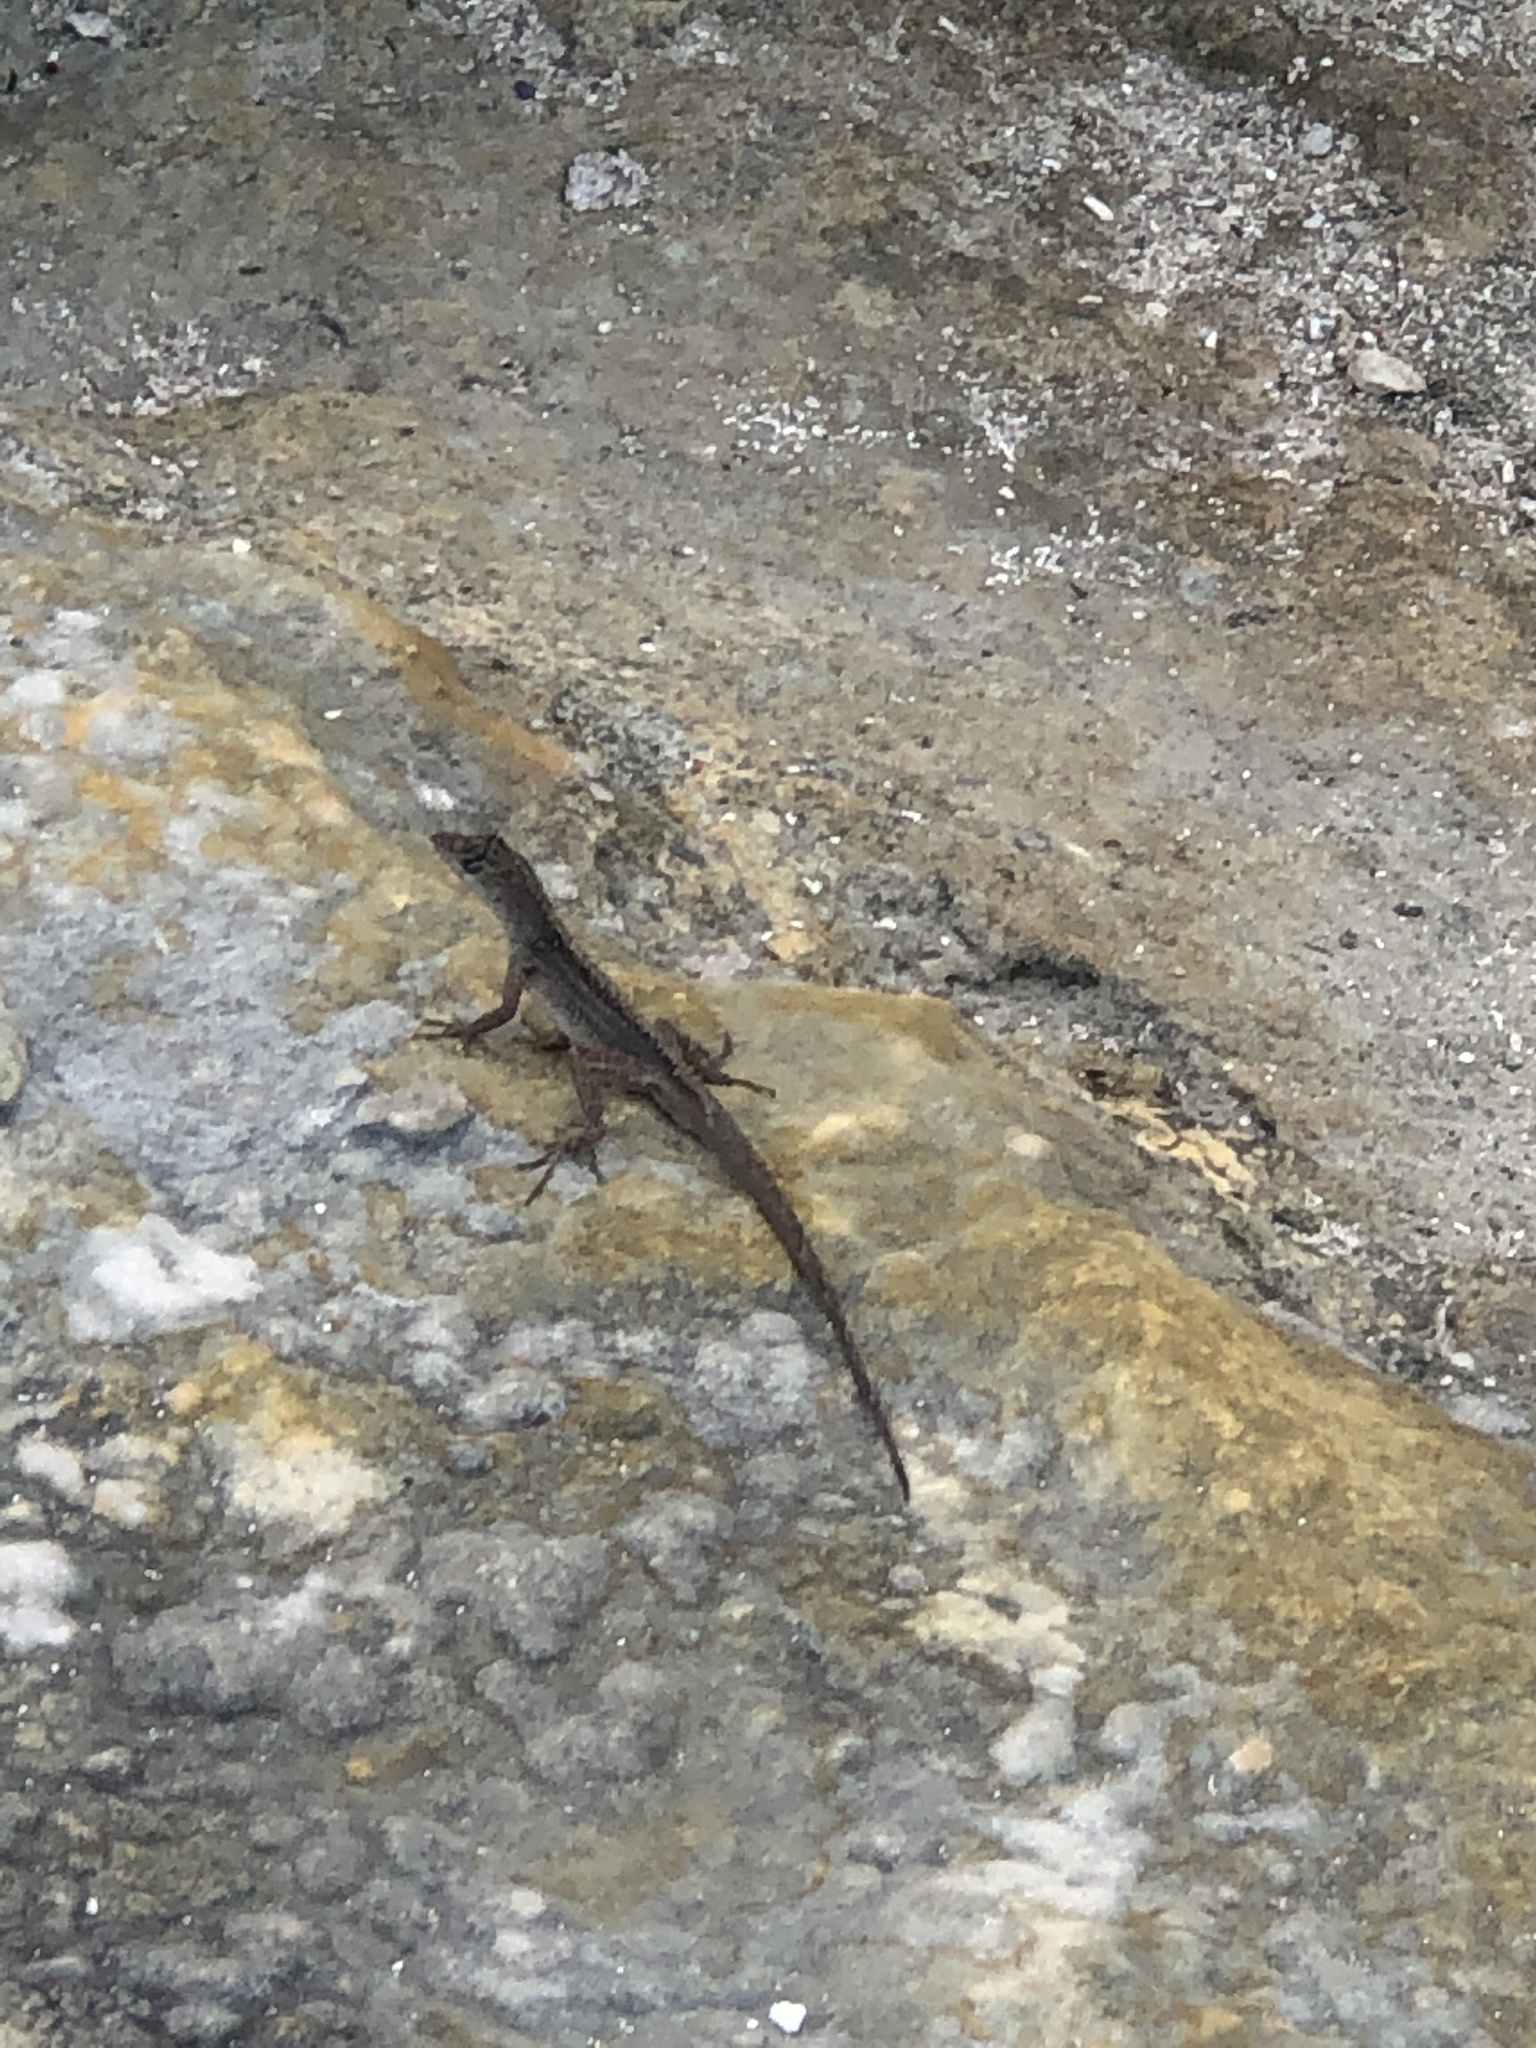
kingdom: Animalia
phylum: Chordata
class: Squamata
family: Dactyloidae
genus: Anolis
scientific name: Anolis sagrei
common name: Brown anole
